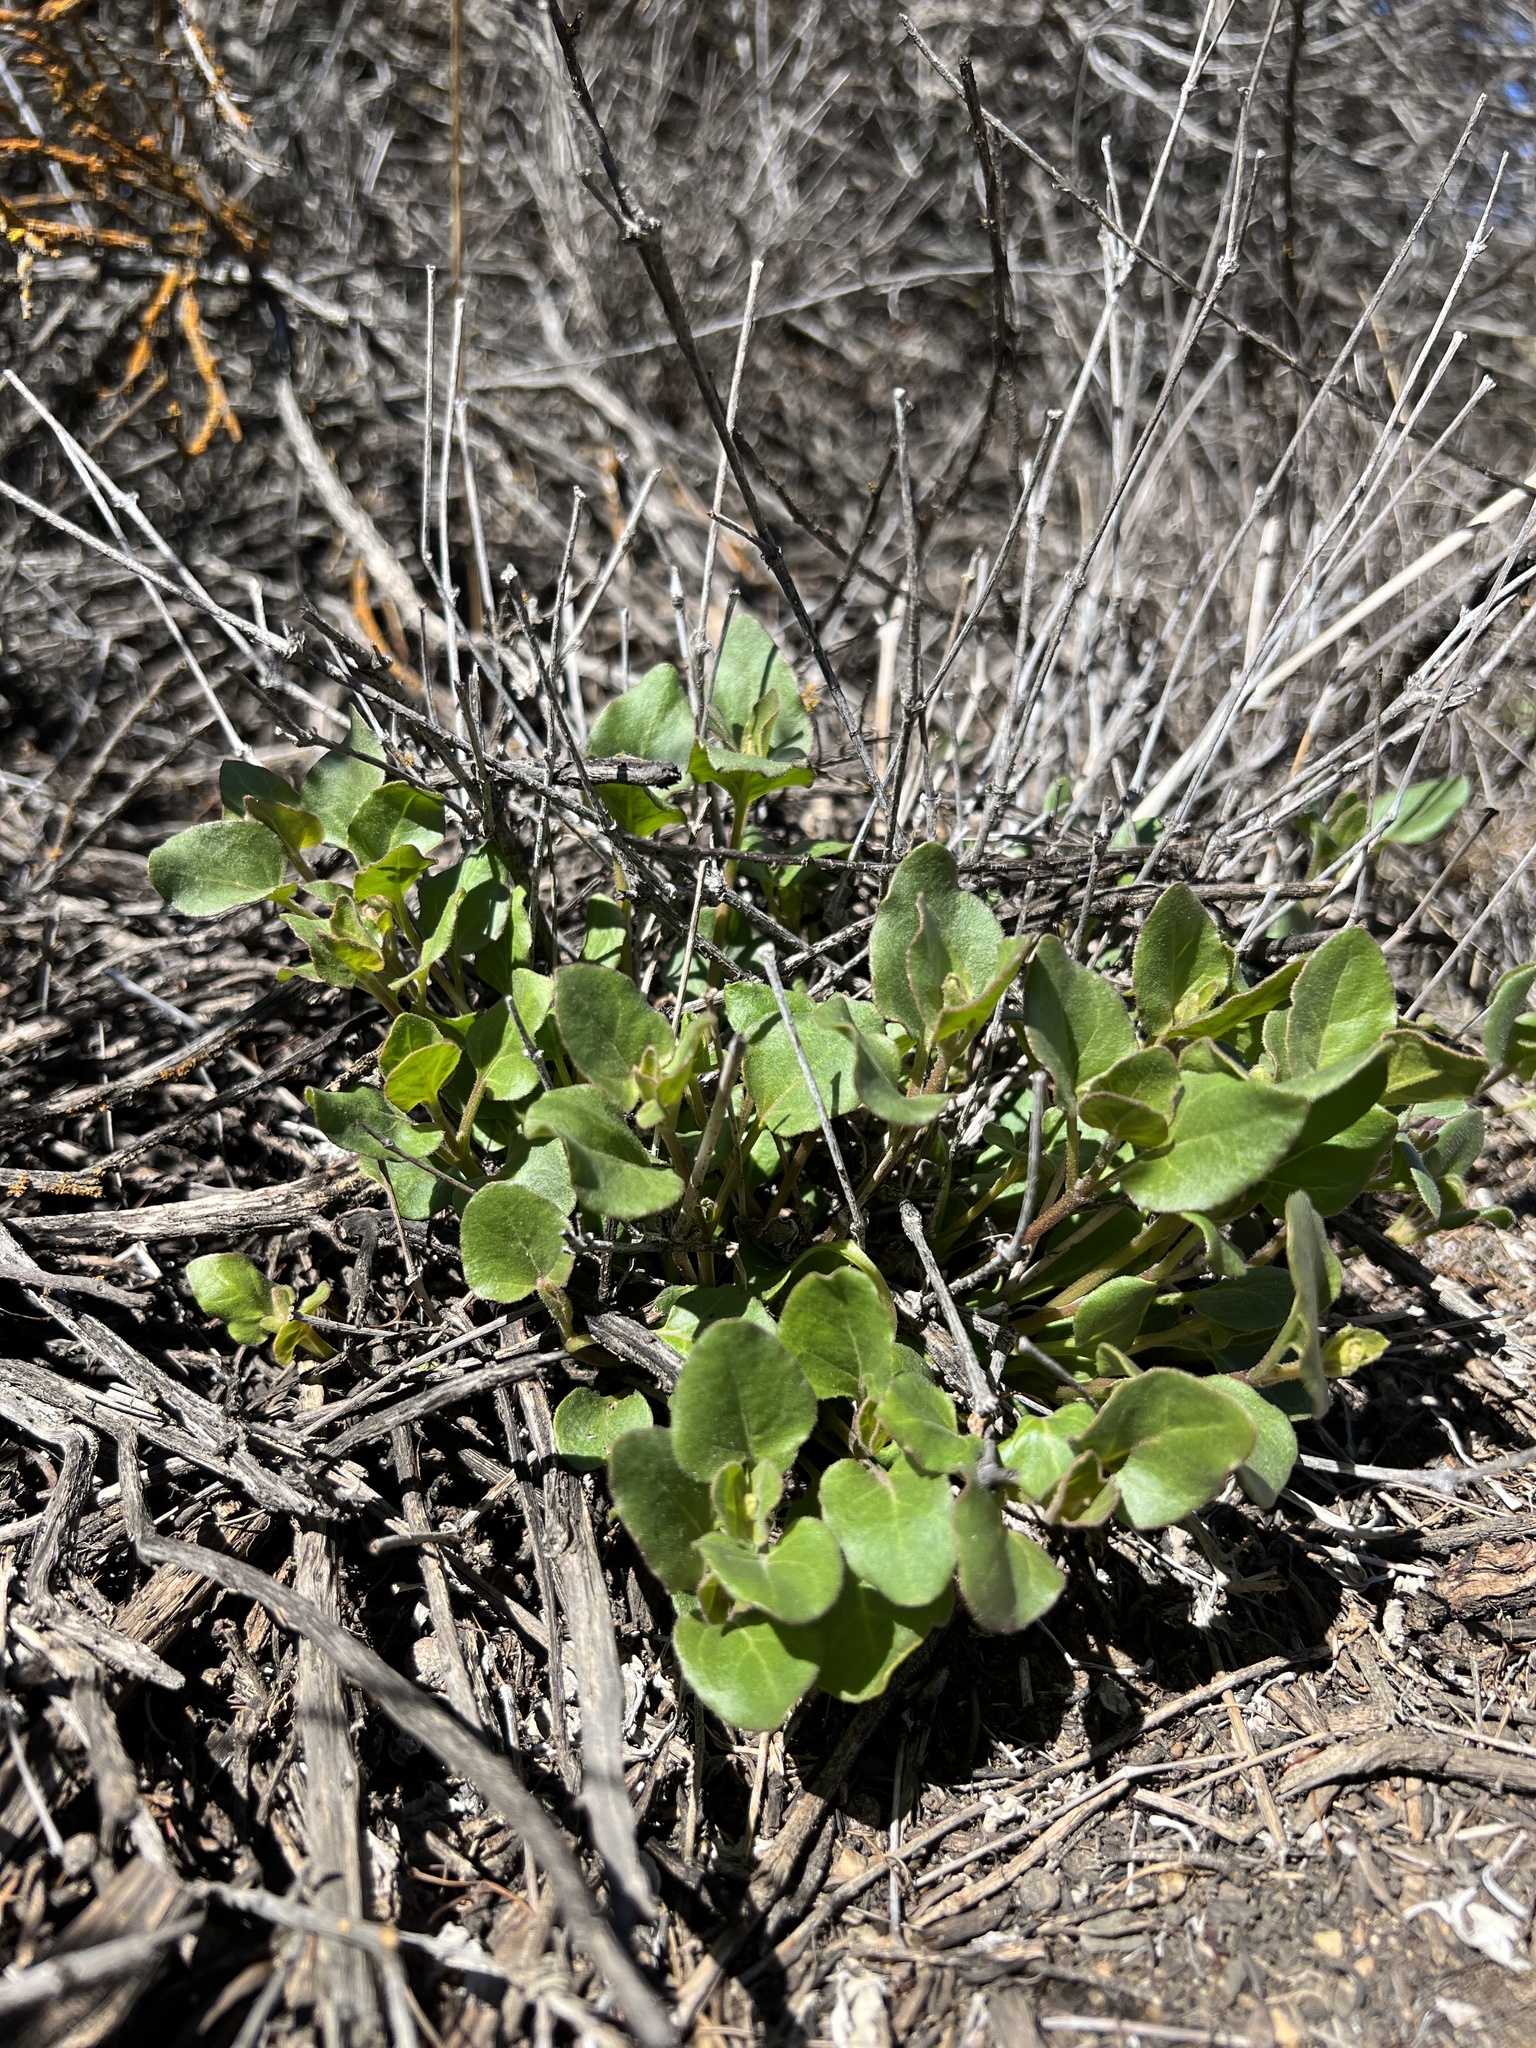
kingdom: Plantae
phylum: Tracheophyta
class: Magnoliopsida
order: Caryophyllales
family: Nyctaginaceae
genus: Mirabilis
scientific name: Mirabilis laevis
